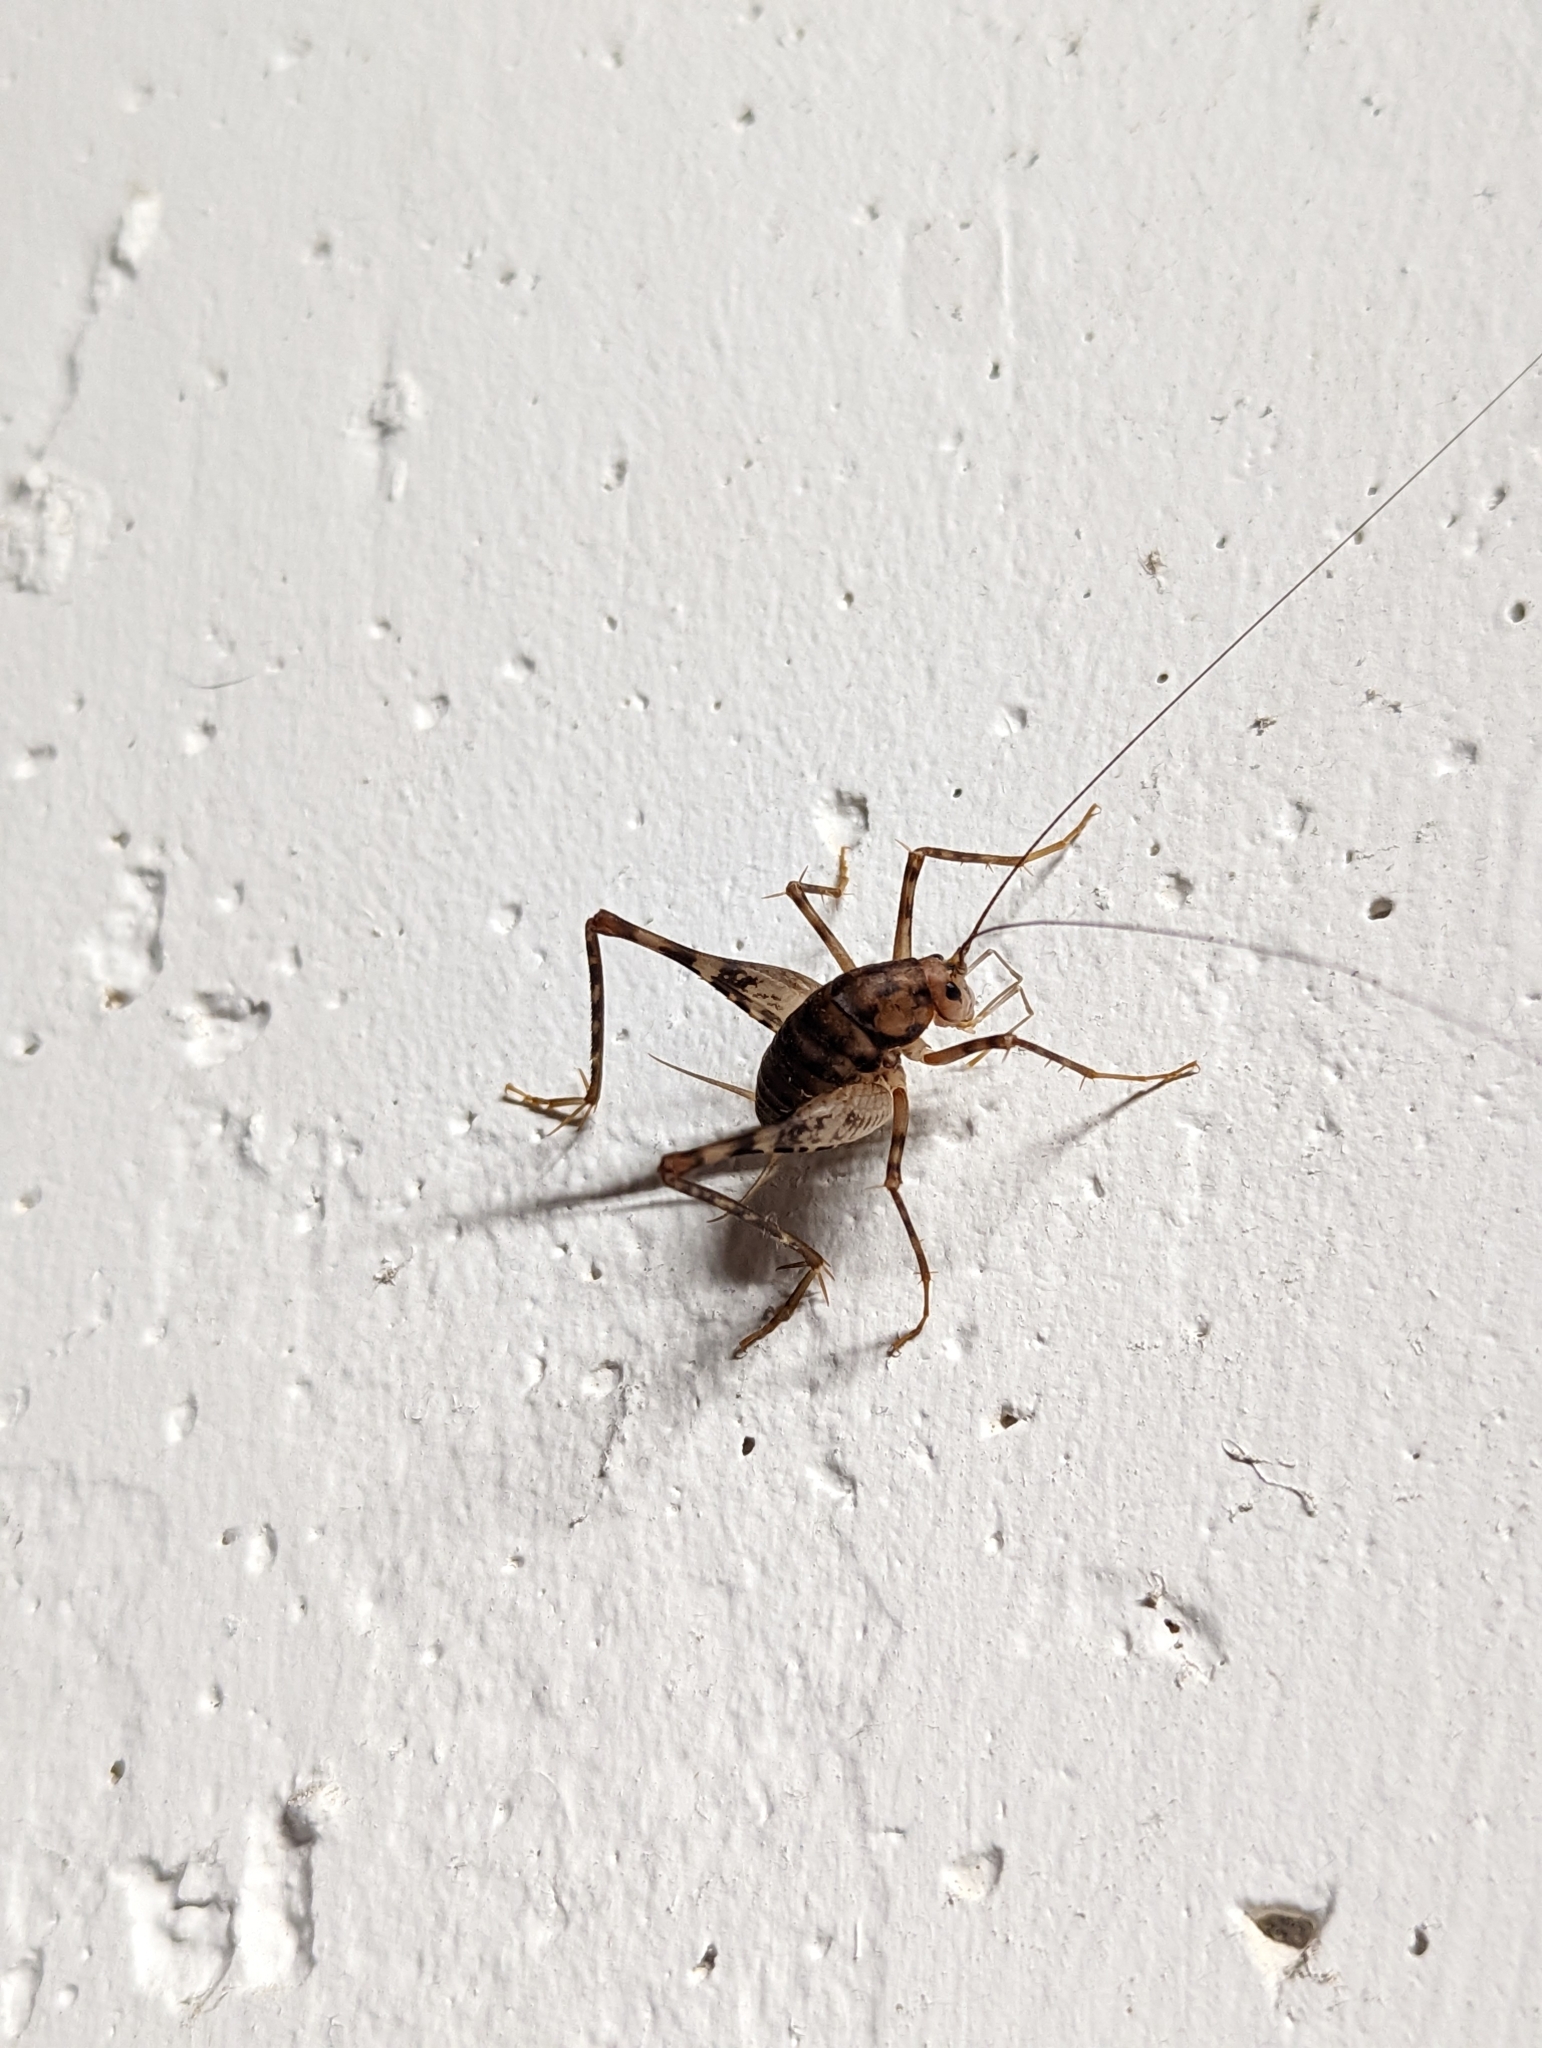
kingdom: Animalia
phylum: Arthropoda
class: Insecta
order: Orthoptera
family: Rhaphidophoridae
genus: Tachycines
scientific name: Tachycines asynamorus
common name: Greenhouse camel cricket
